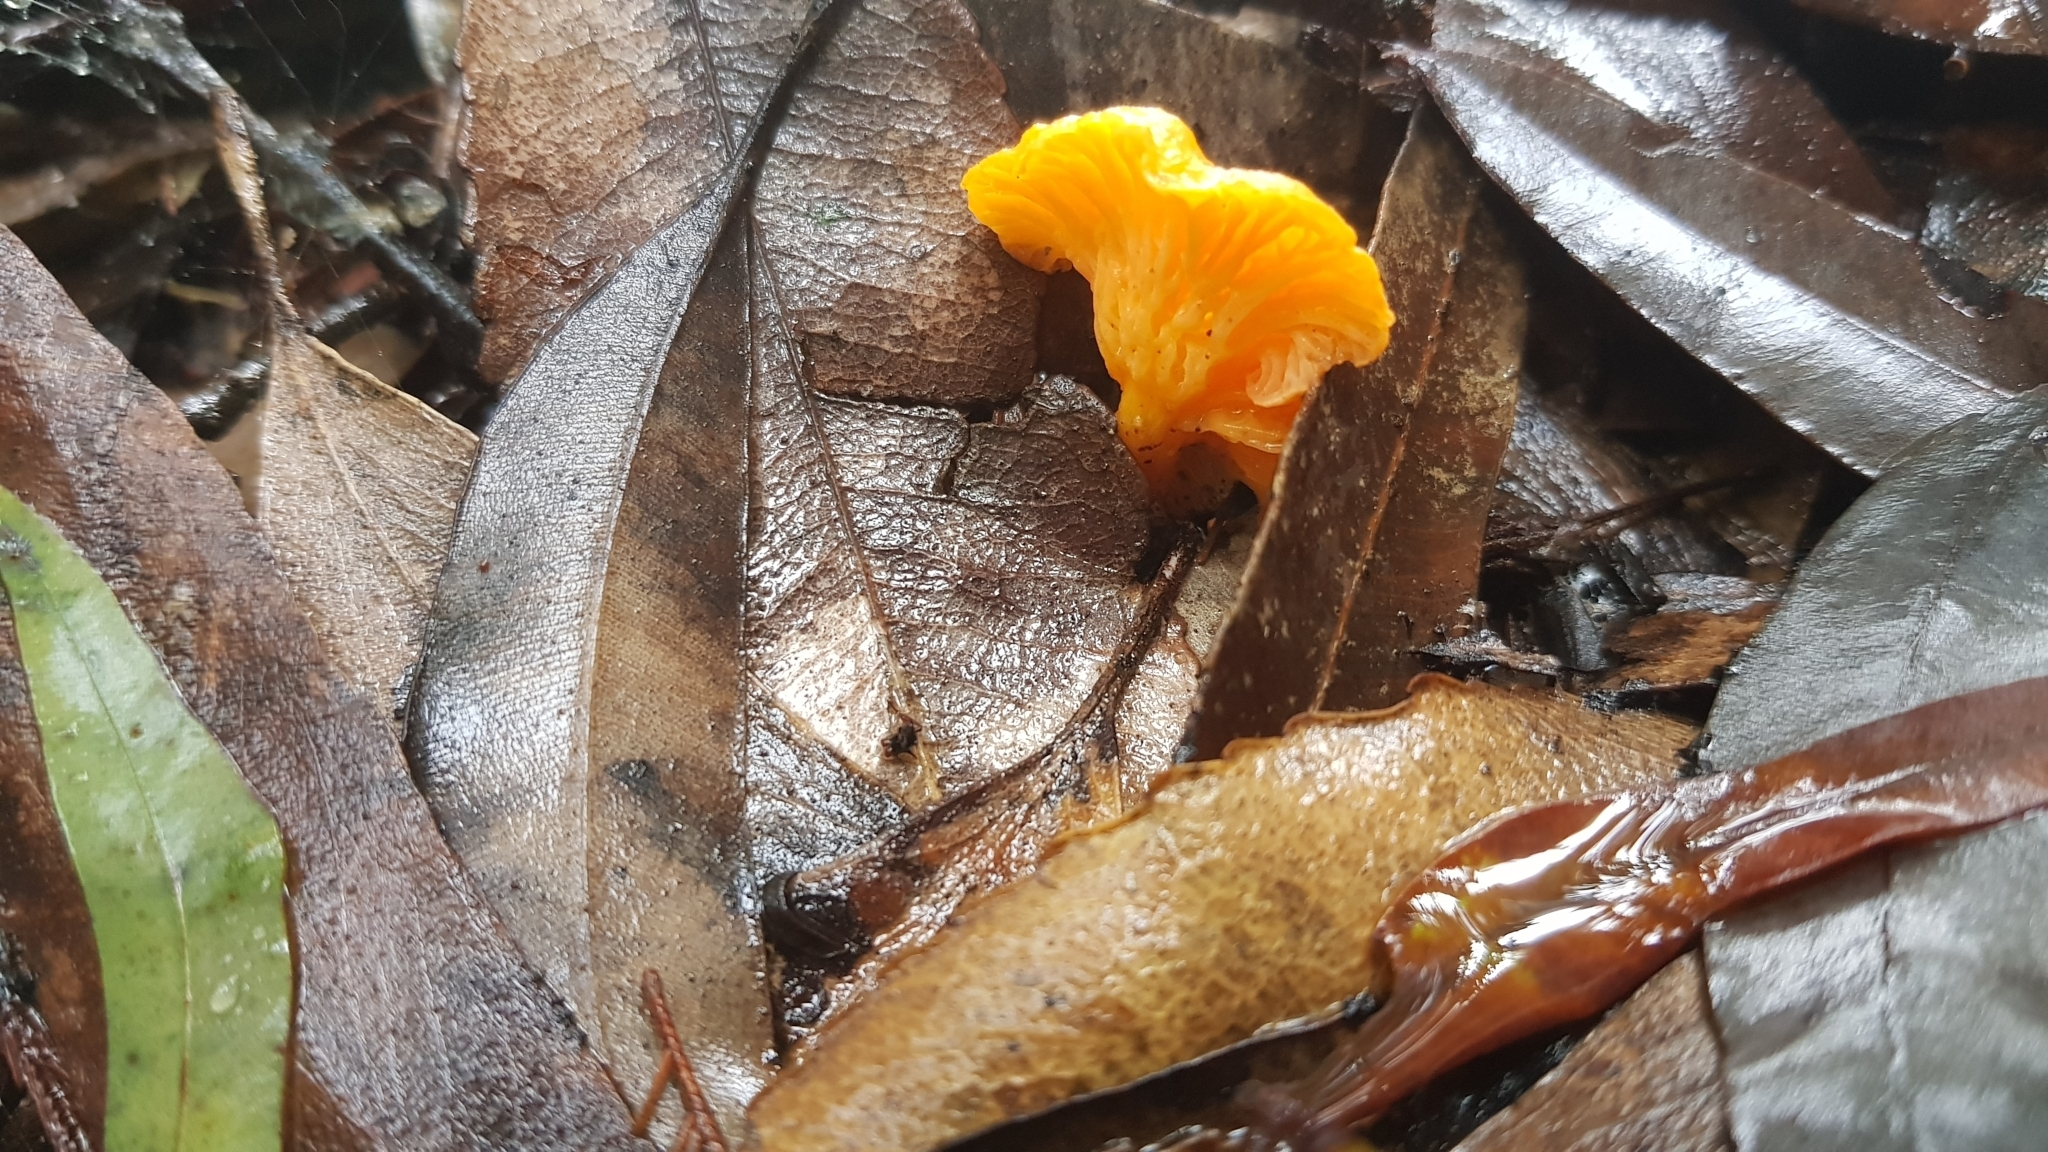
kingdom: Fungi
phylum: Basidiomycota
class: Agaricomycetes
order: Cantharellales
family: Hydnaceae
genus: Cantharellus
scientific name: Cantharellus
